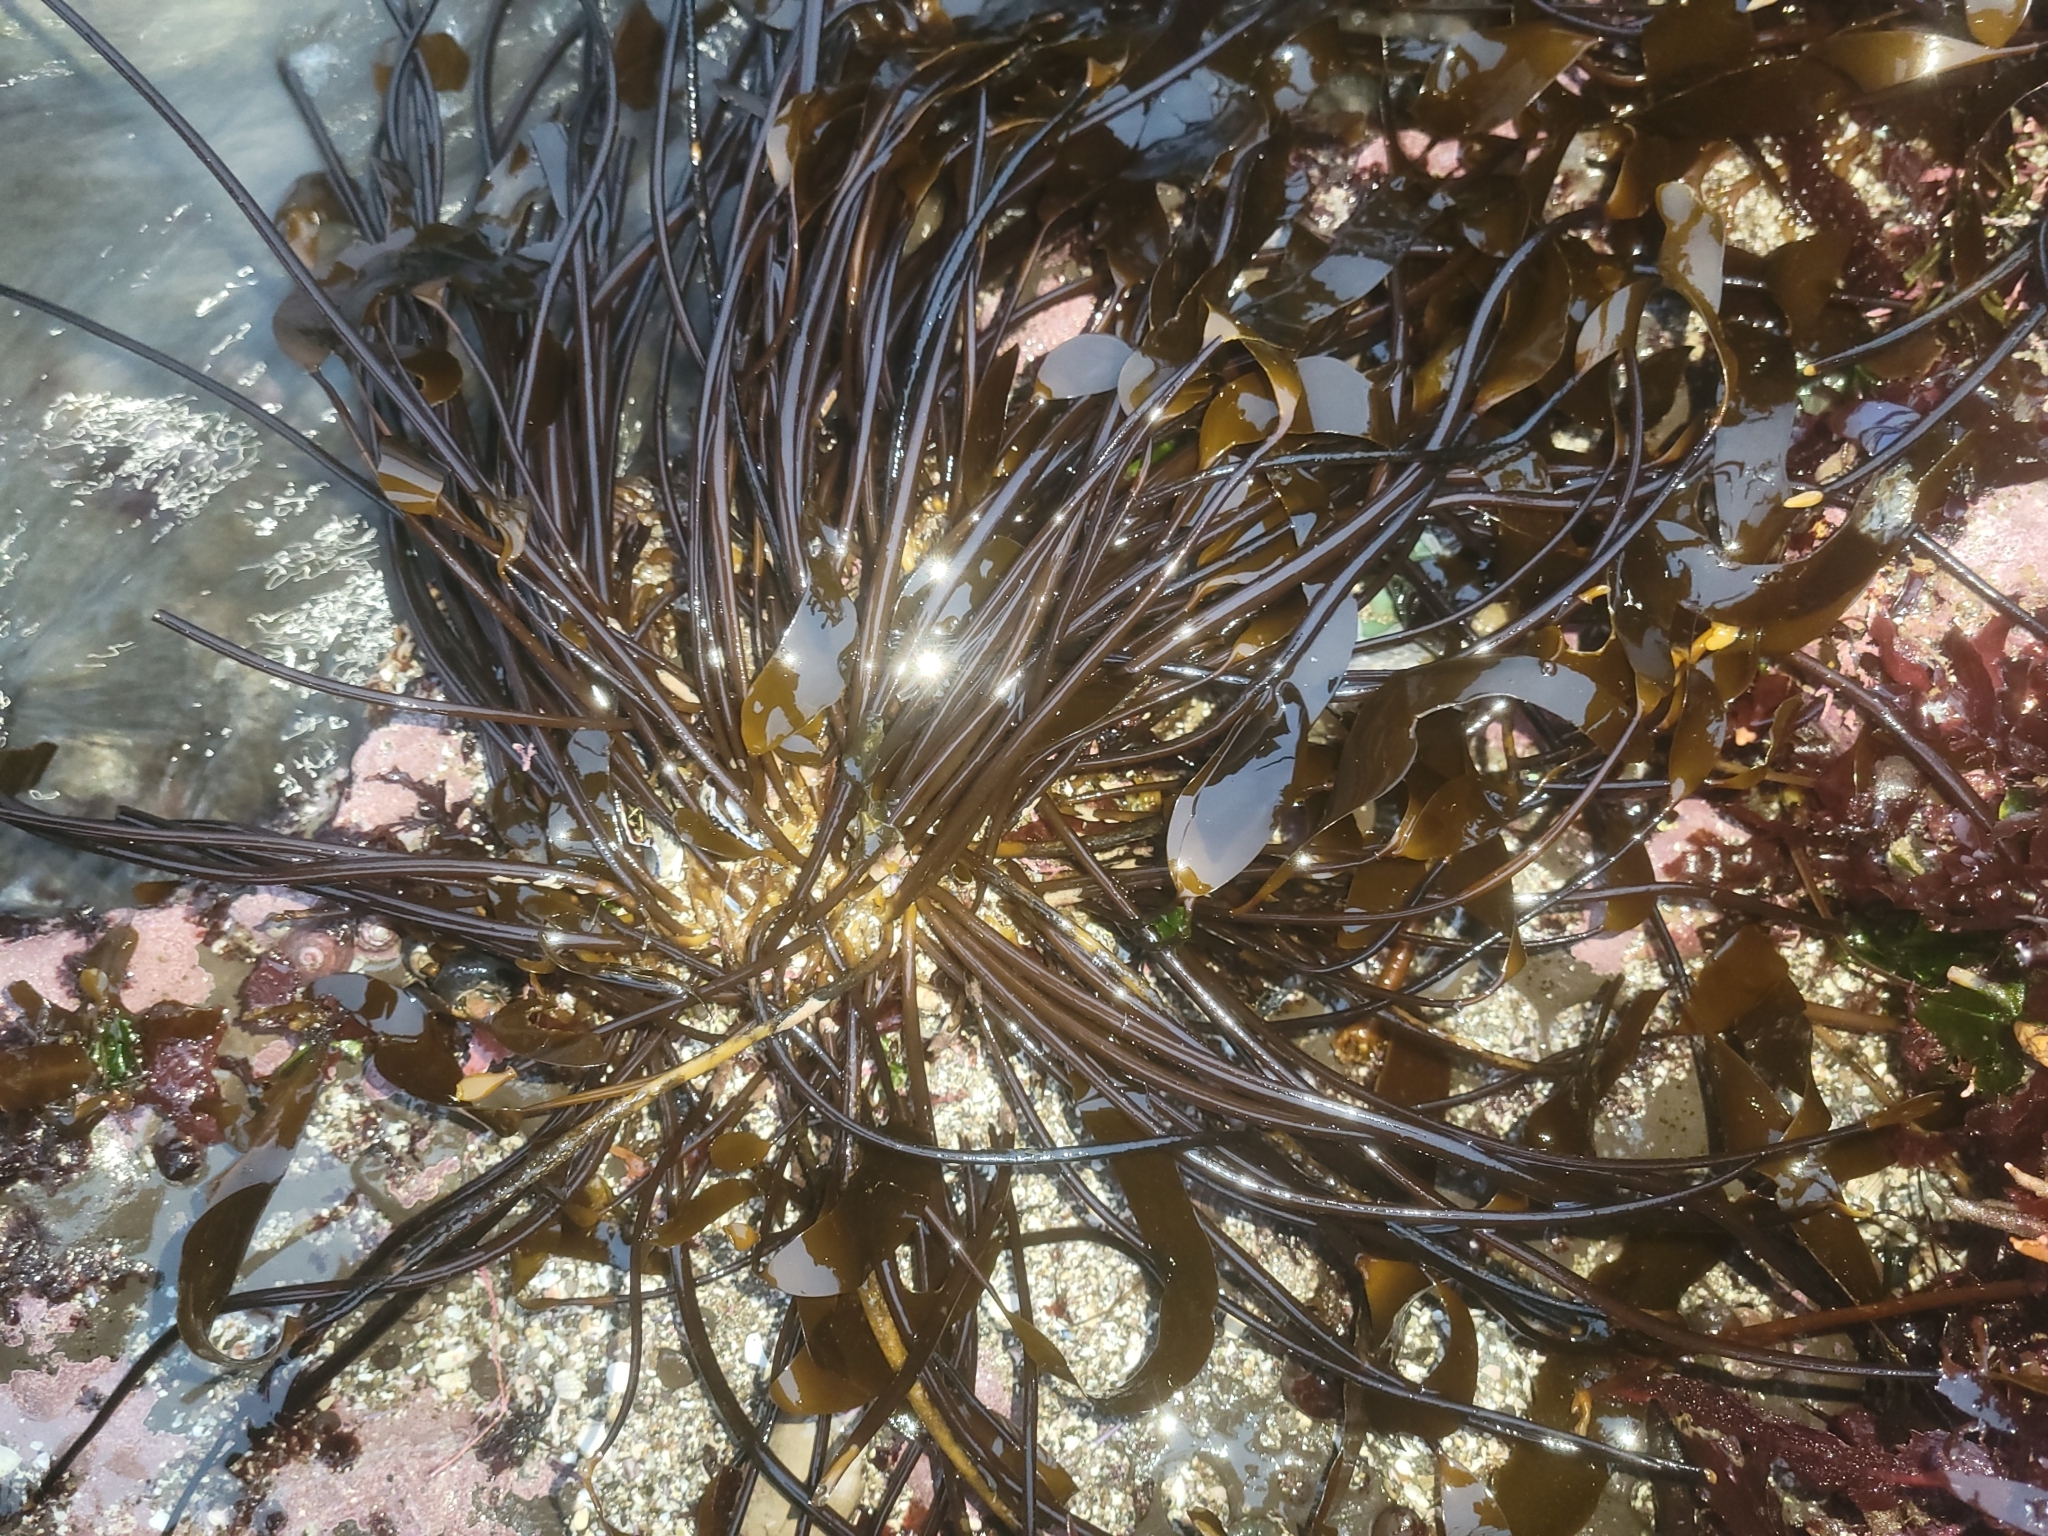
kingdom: Chromista
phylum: Ochrophyta
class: Phaeophyceae
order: Laminariales
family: Laminariaceae
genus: Laminaria
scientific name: Laminaria sinclairii
